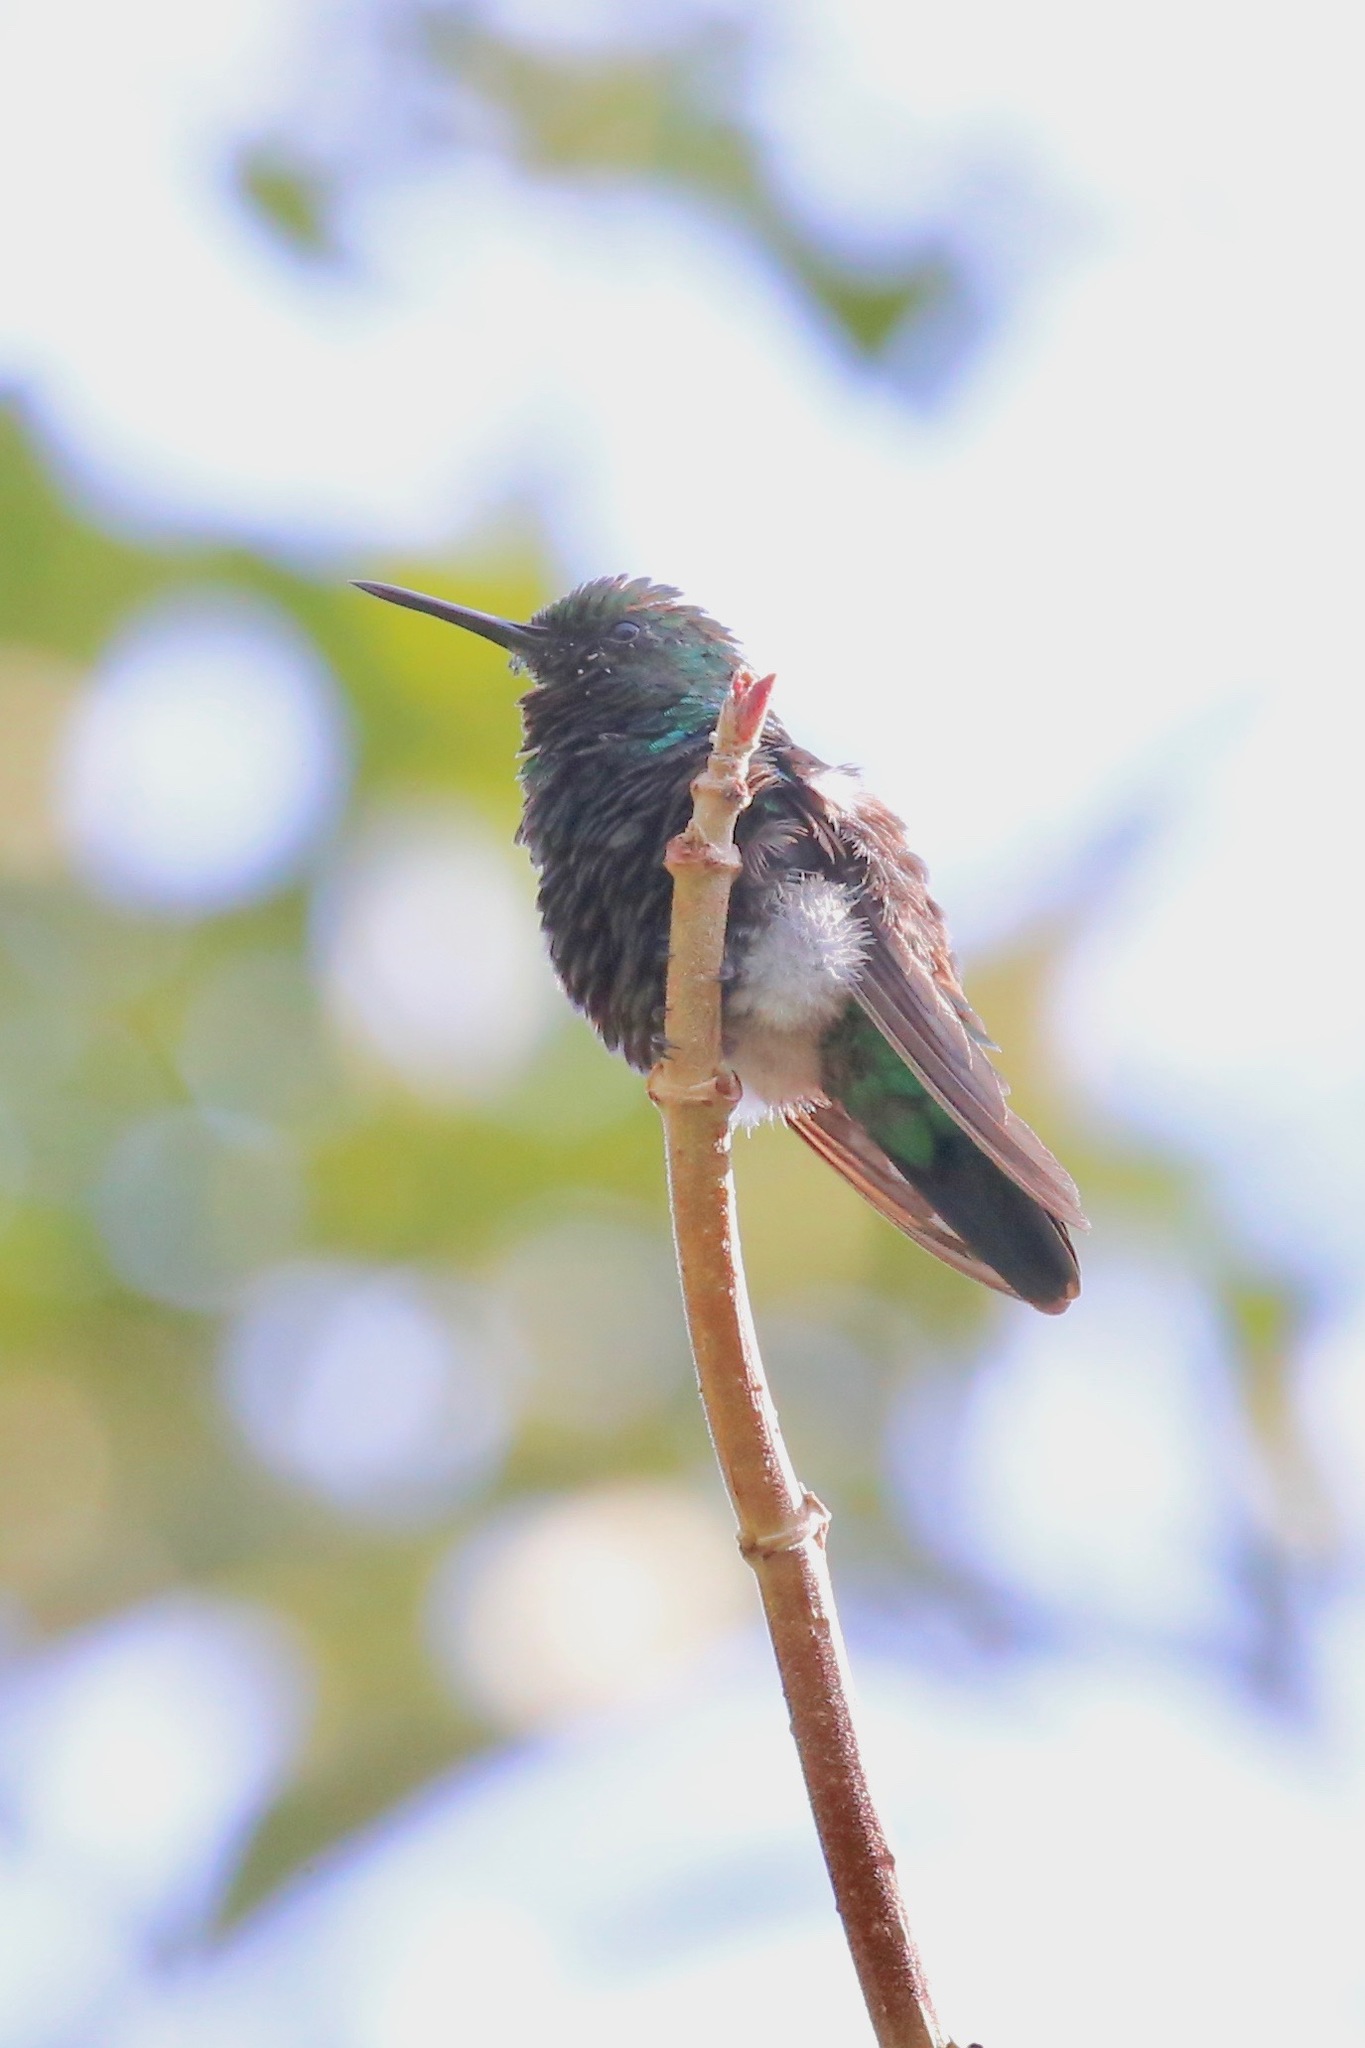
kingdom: Animalia
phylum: Chordata
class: Aves
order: Apodiformes
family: Trochilidae
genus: Chlorostilbon
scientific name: Chlorostilbon assimilis
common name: Garden emerald
